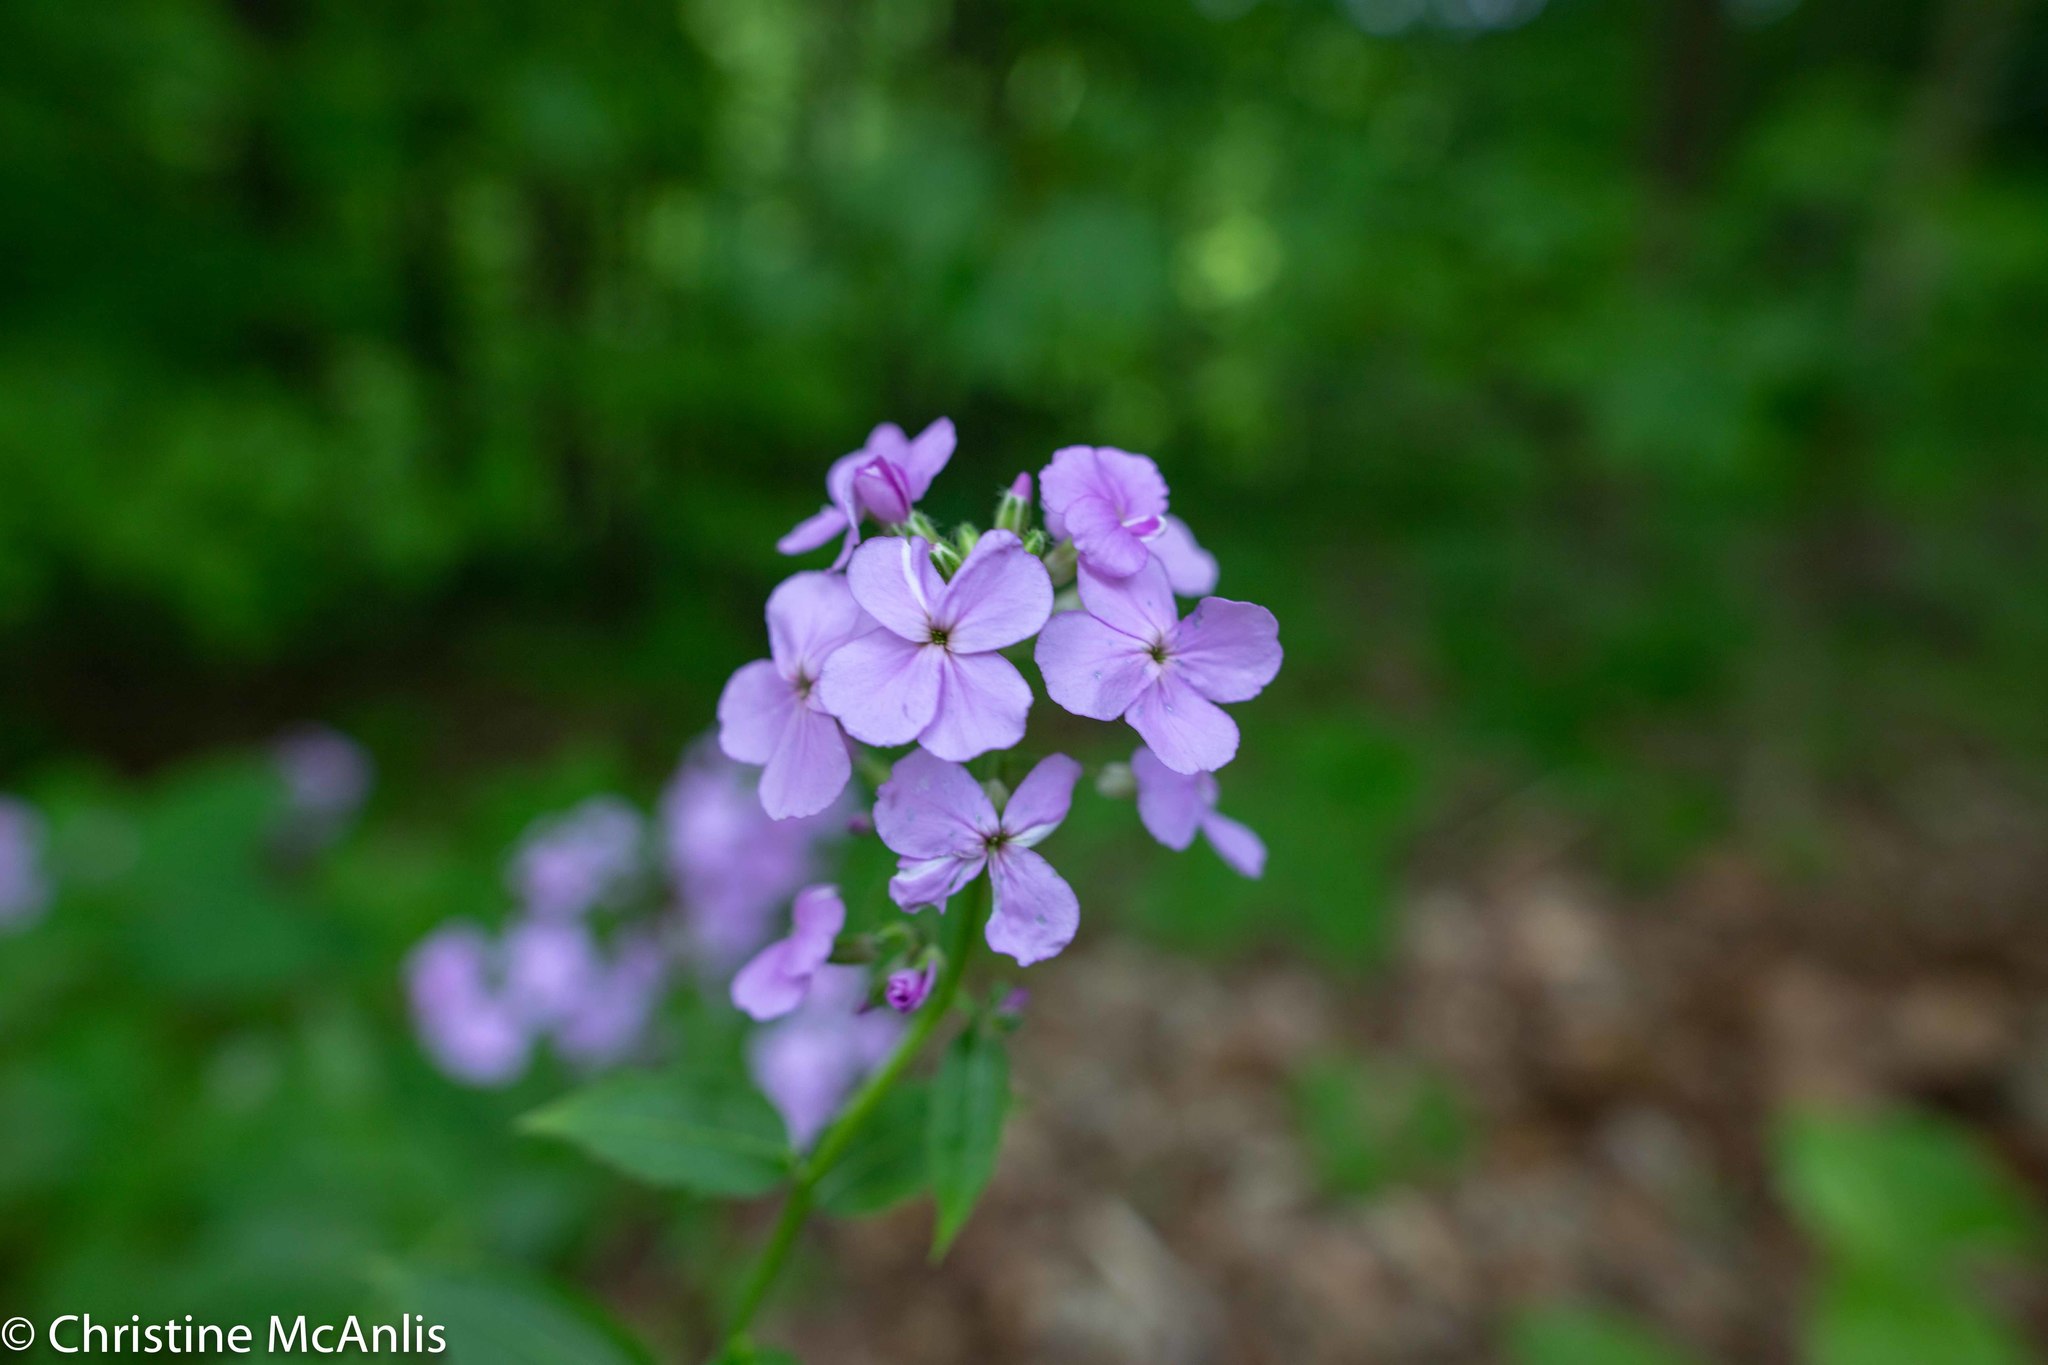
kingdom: Plantae
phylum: Tracheophyta
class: Magnoliopsida
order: Brassicales
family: Brassicaceae
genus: Hesperis
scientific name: Hesperis matronalis
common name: Dame's-violet
